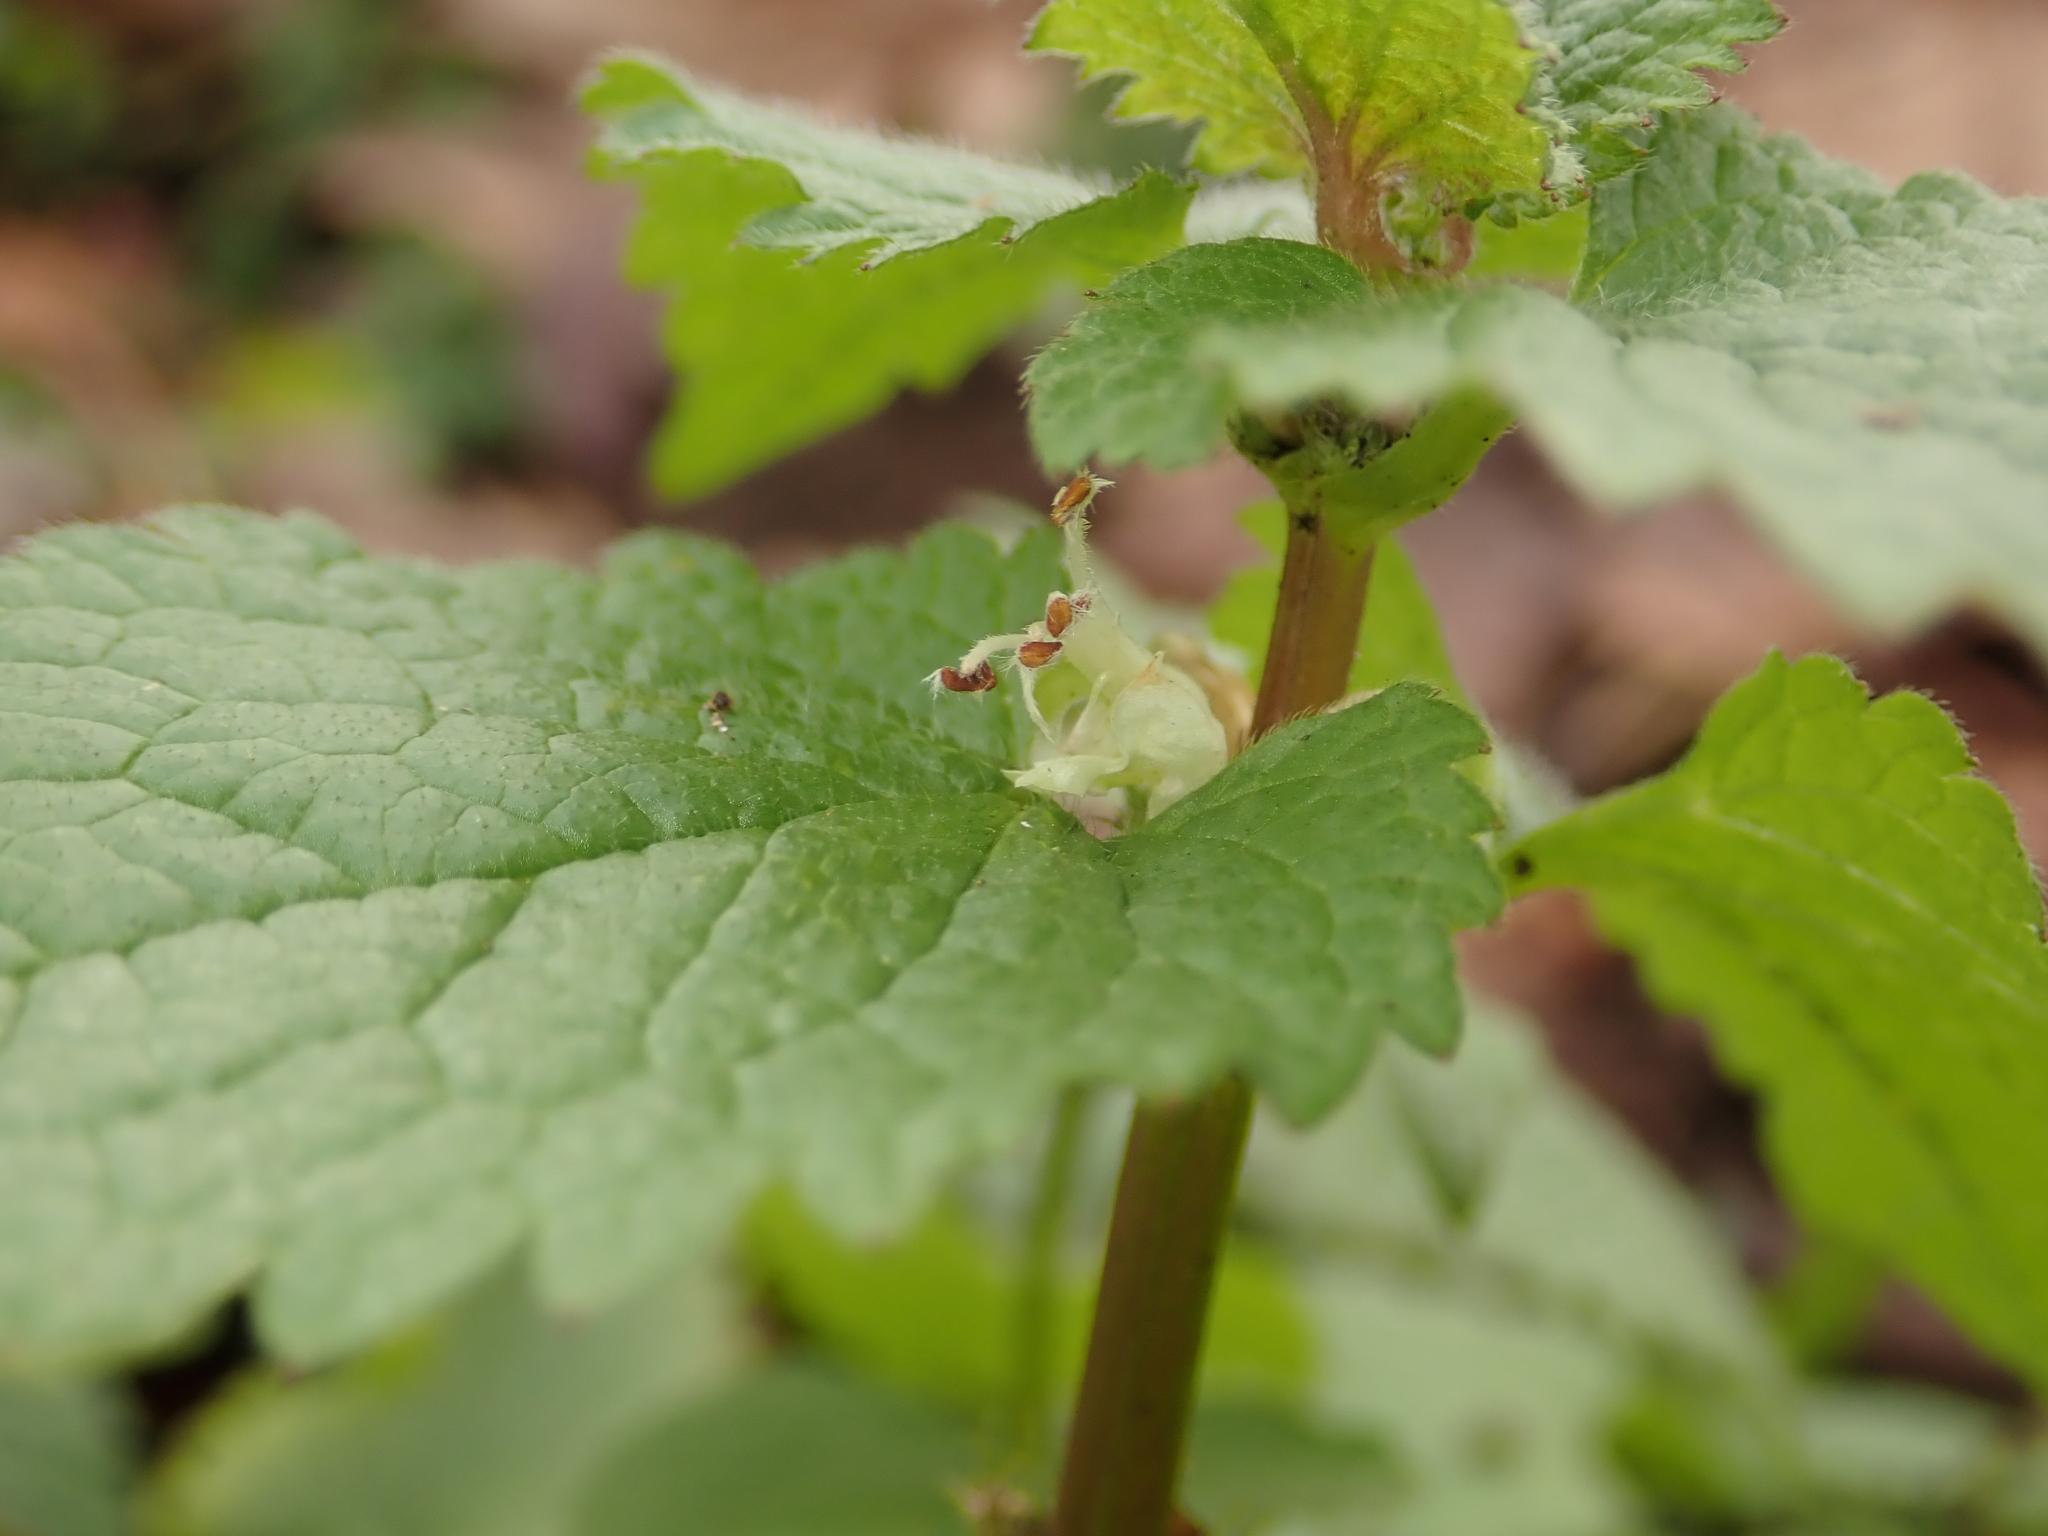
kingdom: Plantae
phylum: Tracheophyta
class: Magnoliopsida
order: Lamiales
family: Lamiaceae
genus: Lamium
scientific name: Lamium album
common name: White dead-nettle
